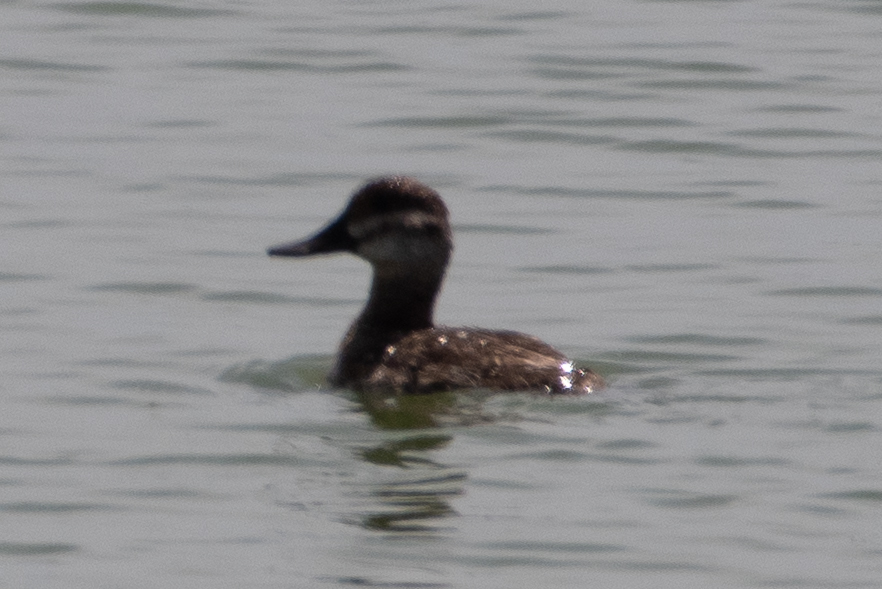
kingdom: Animalia
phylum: Chordata
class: Aves
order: Anseriformes
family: Anatidae
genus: Oxyura
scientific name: Oxyura jamaicensis
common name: Ruddy duck
